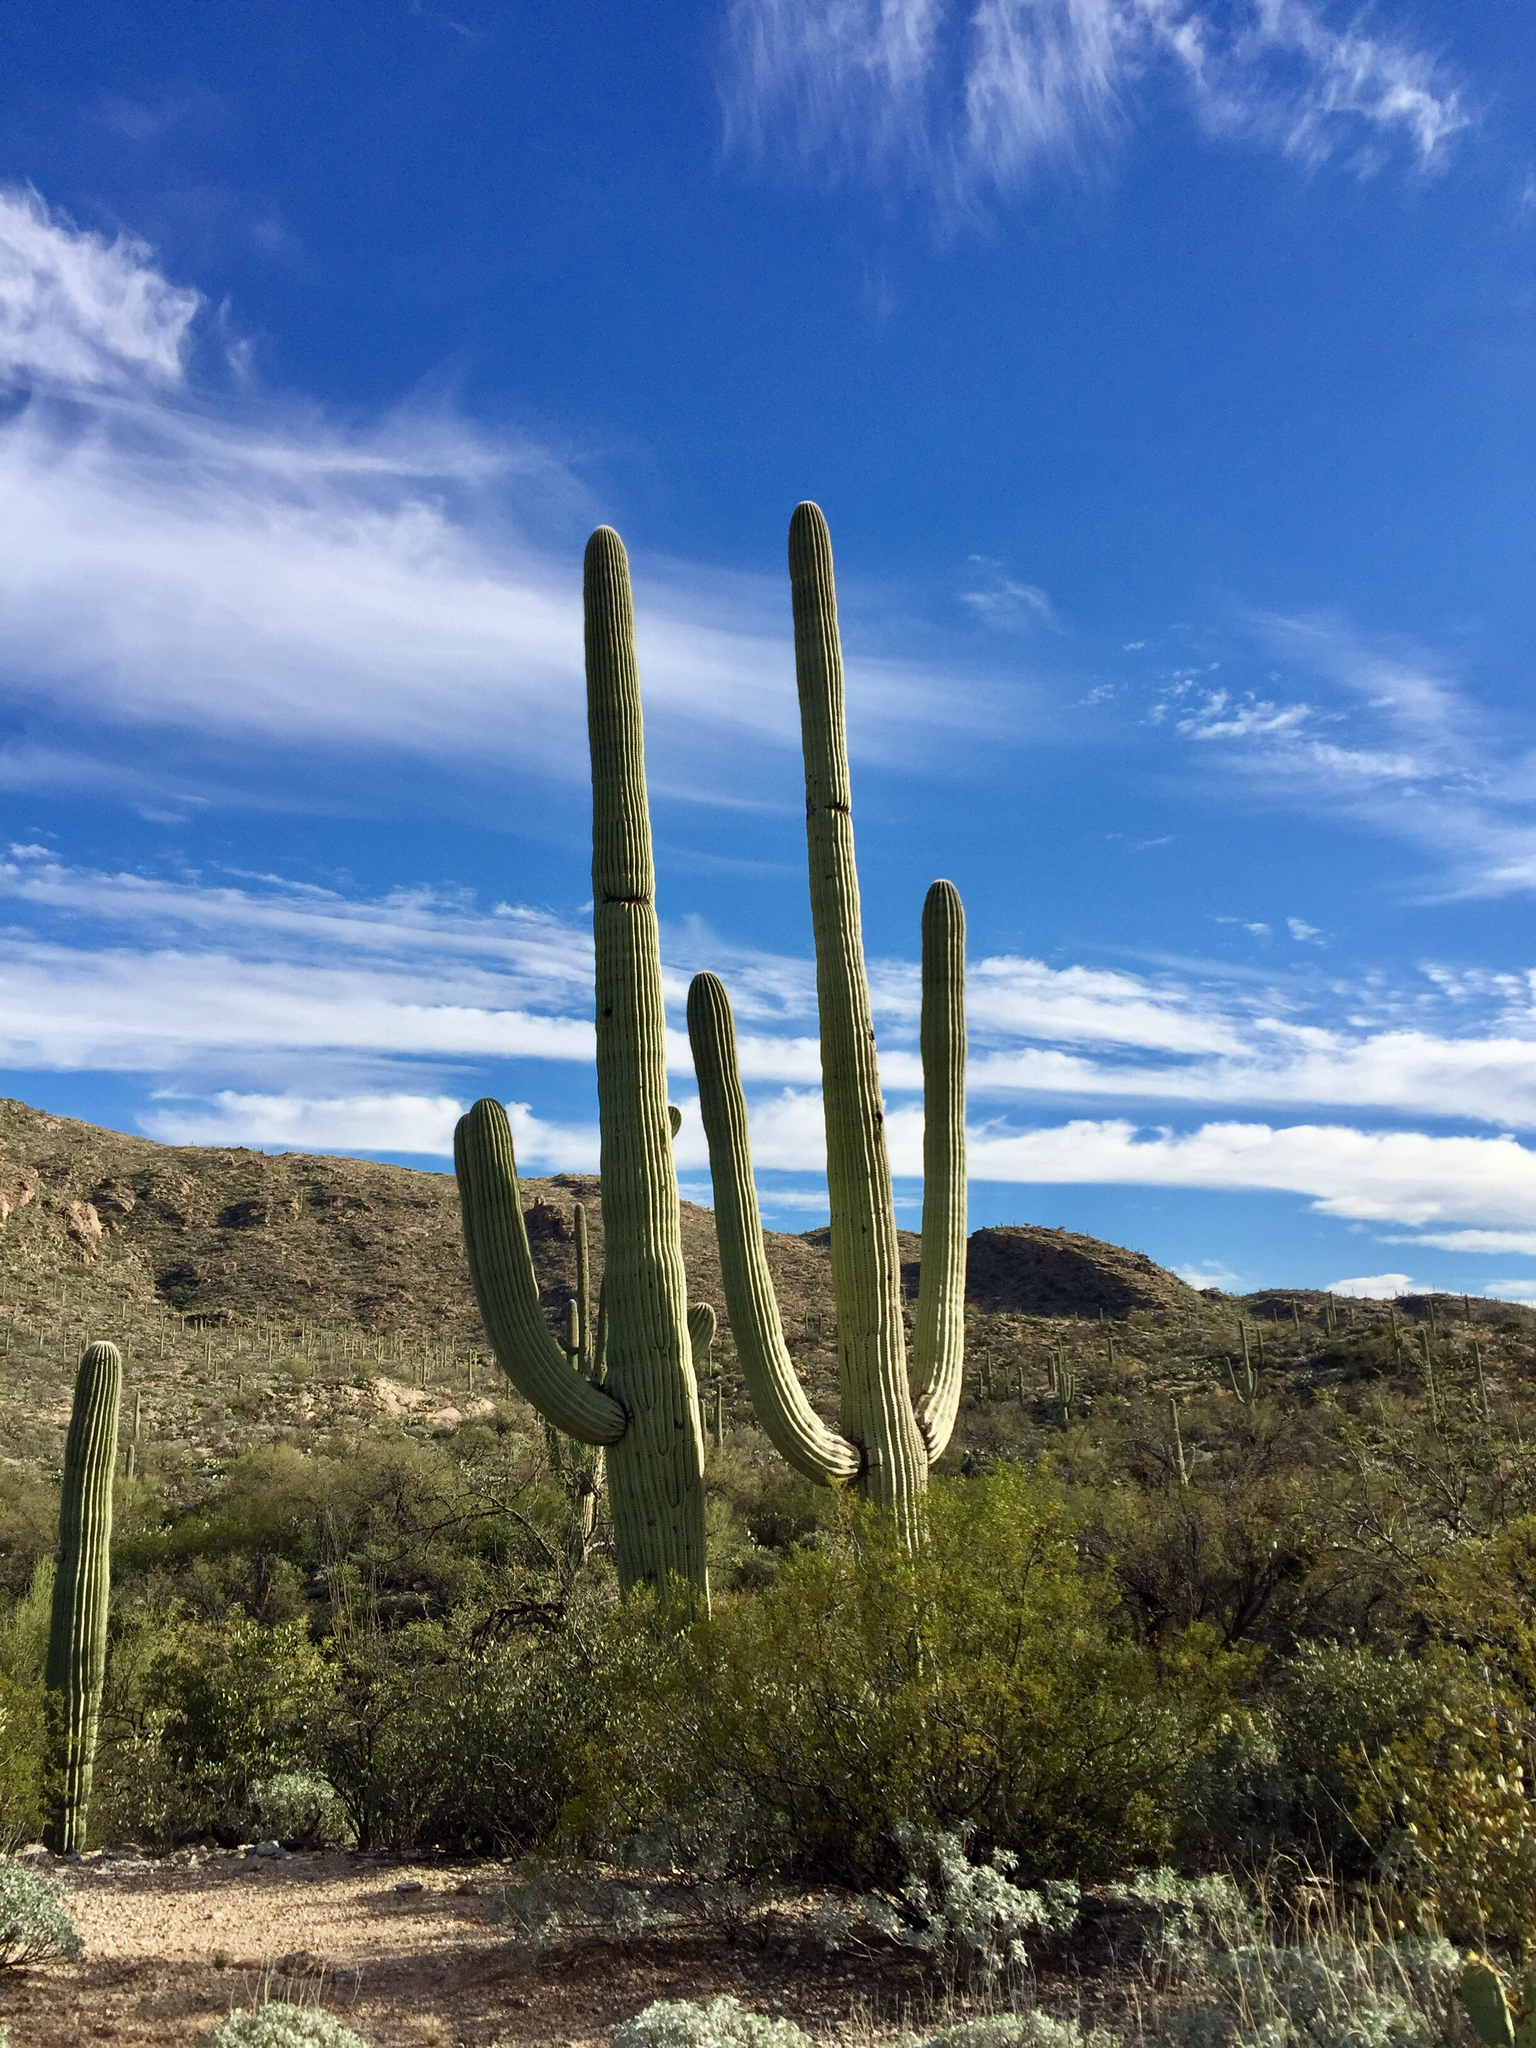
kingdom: Plantae
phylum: Tracheophyta
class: Magnoliopsida
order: Caryophyllales
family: Cactaceae
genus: Carnegiea
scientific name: Carnegiea gigantea
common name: Saguaro
